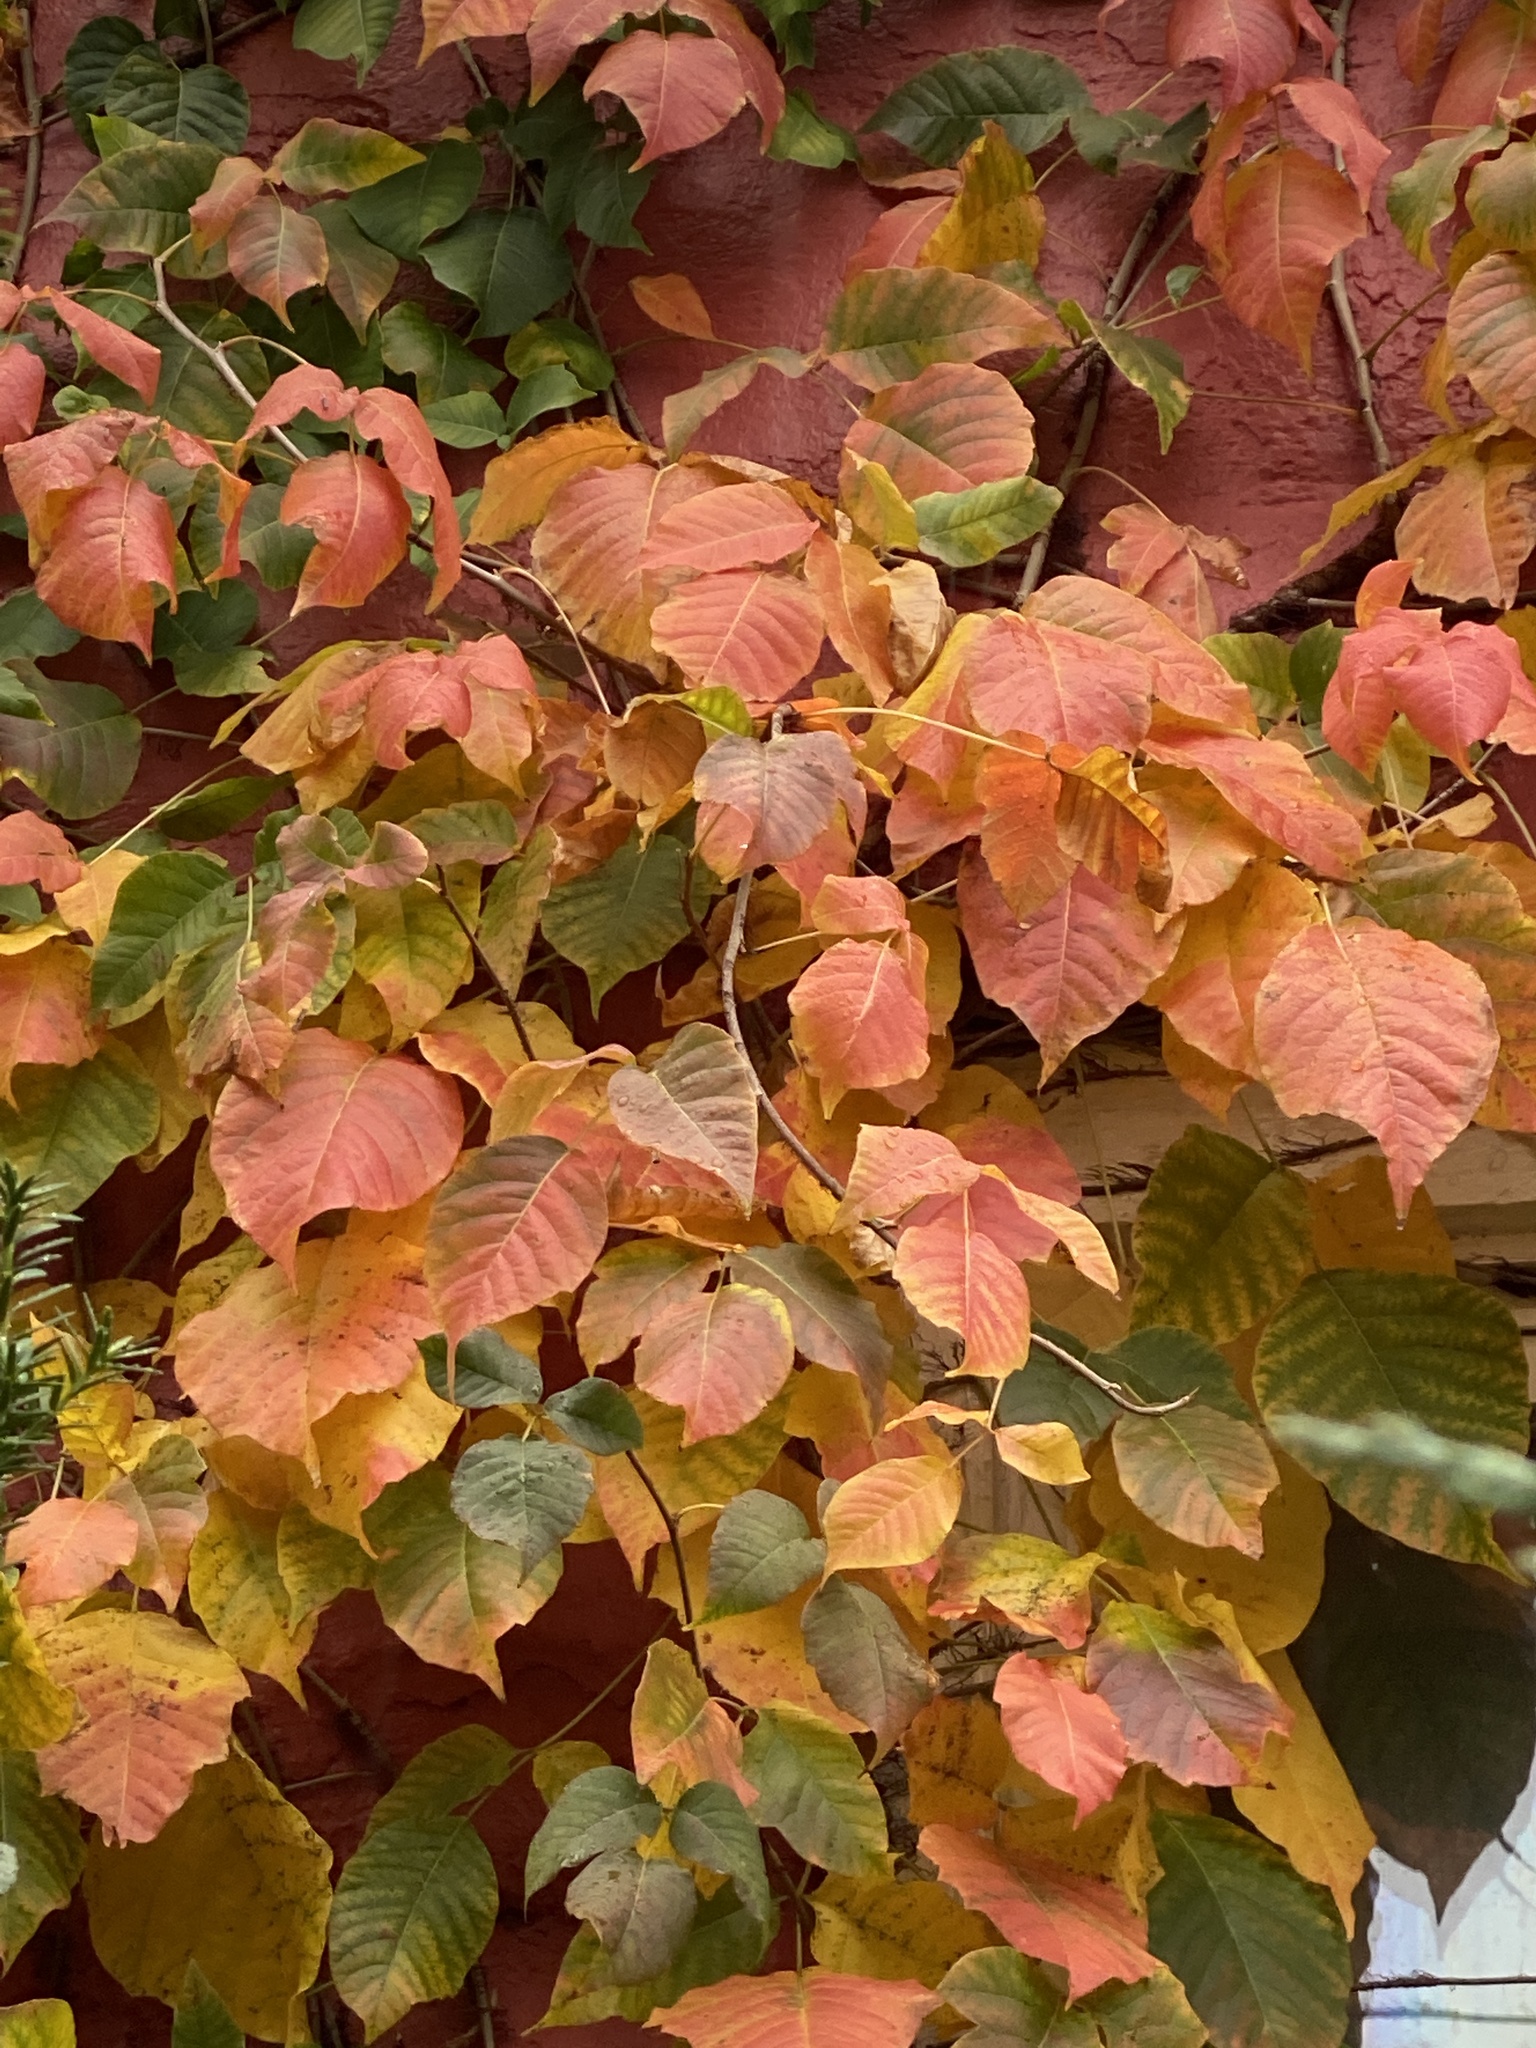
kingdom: Plantae
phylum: Tracheophyta
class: Magnoliopsida
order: Sapindales
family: Anacardiaceae
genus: Toxicodendron
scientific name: Toxicodendron radicans
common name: Poison ivy
